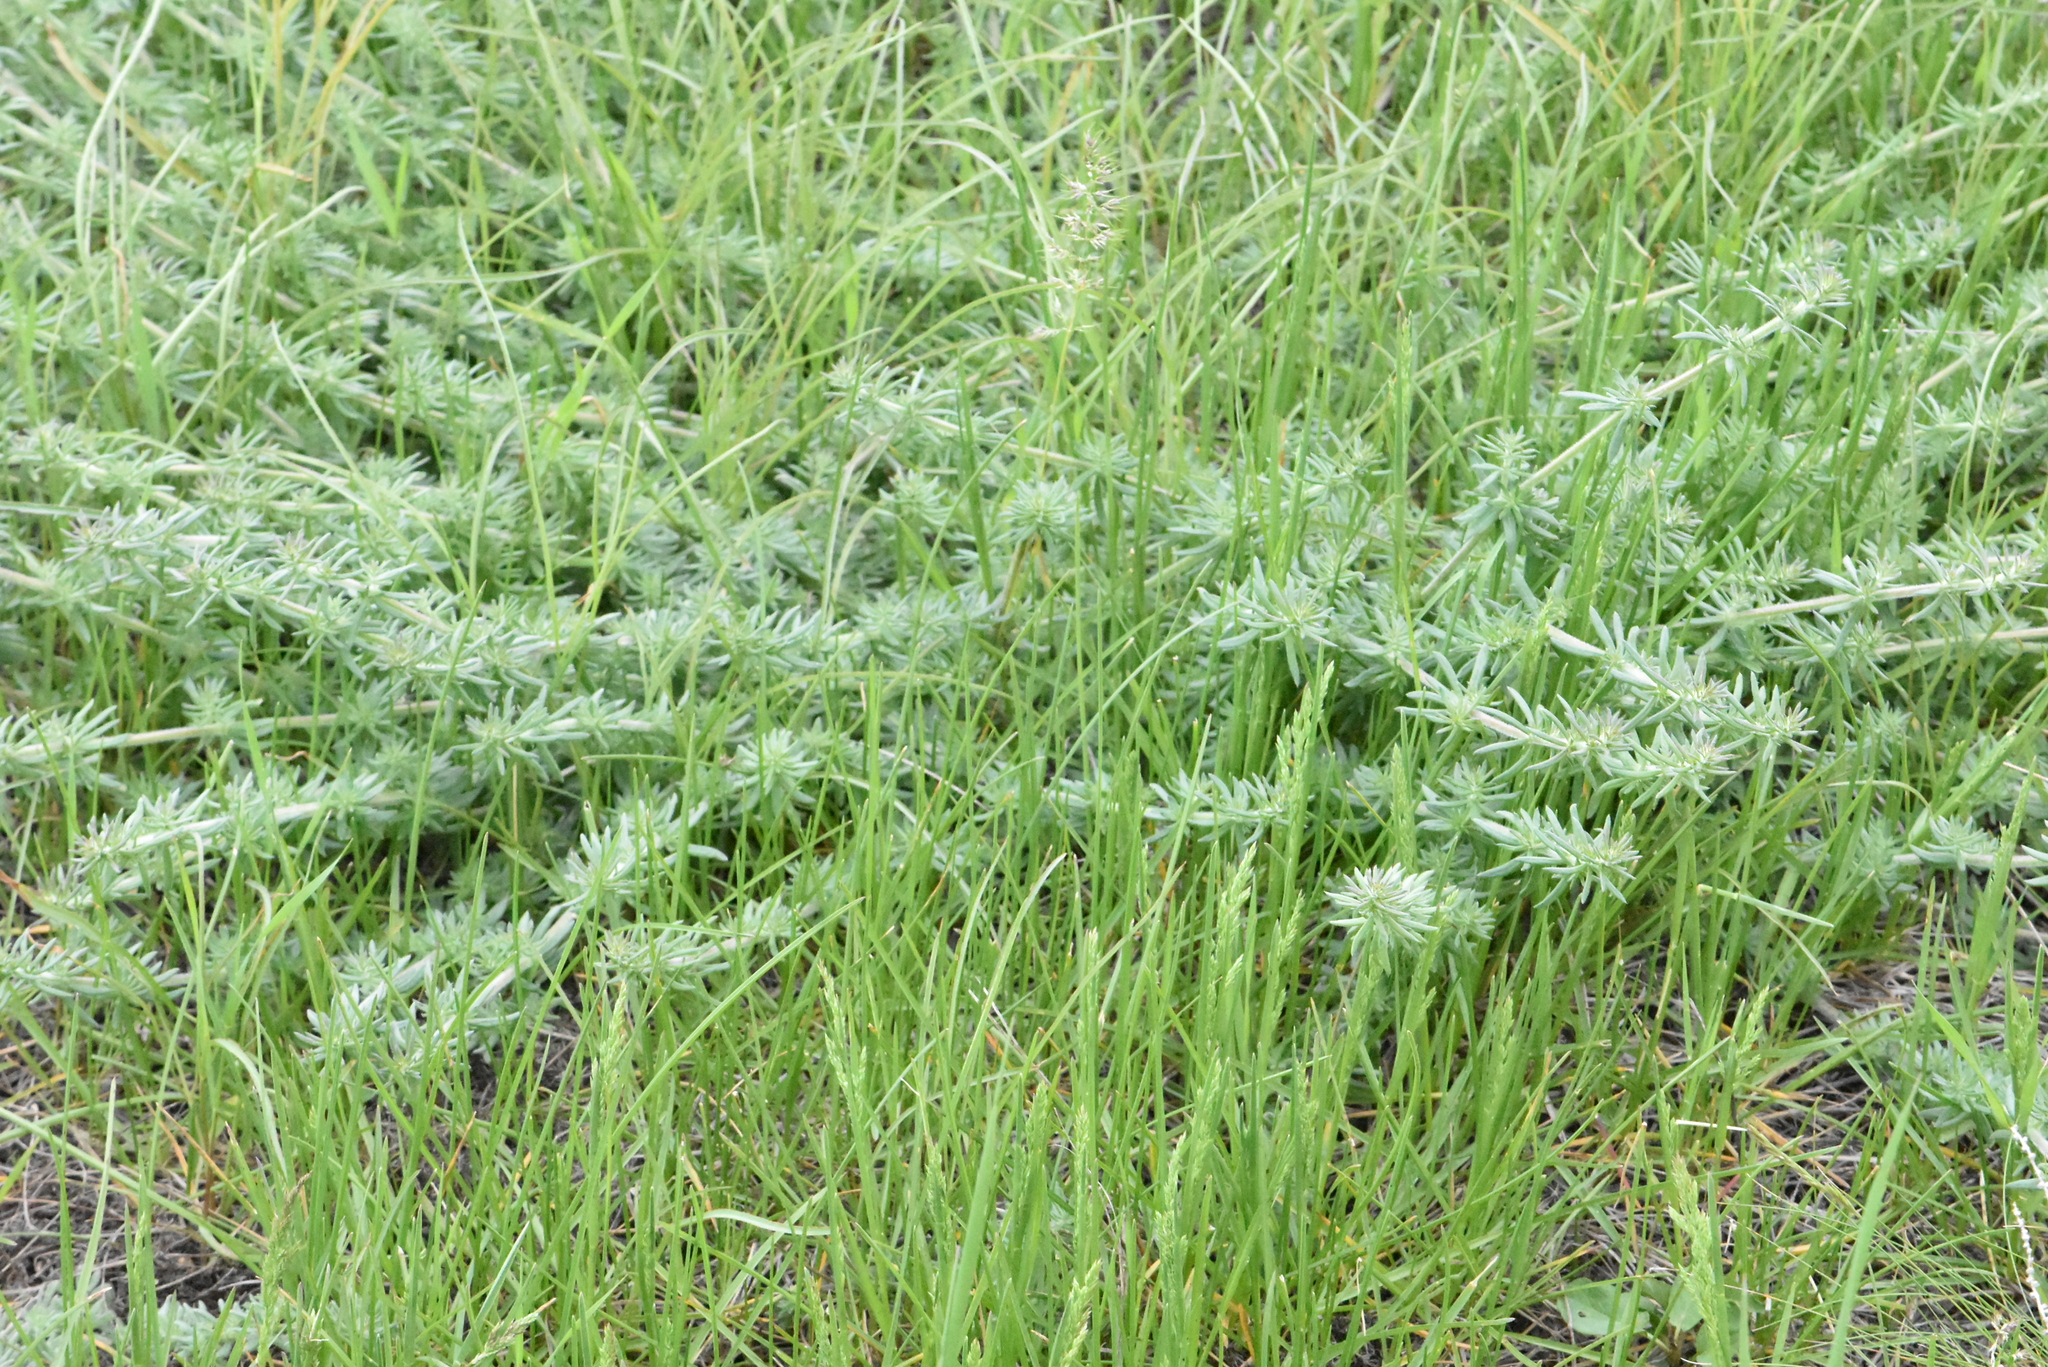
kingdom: Plantae
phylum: Tracheophyta
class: Magnoliopsida
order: Gentianales
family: Rubiaceae
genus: Galium
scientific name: Galium humifusum
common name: Spreading bedstraw
